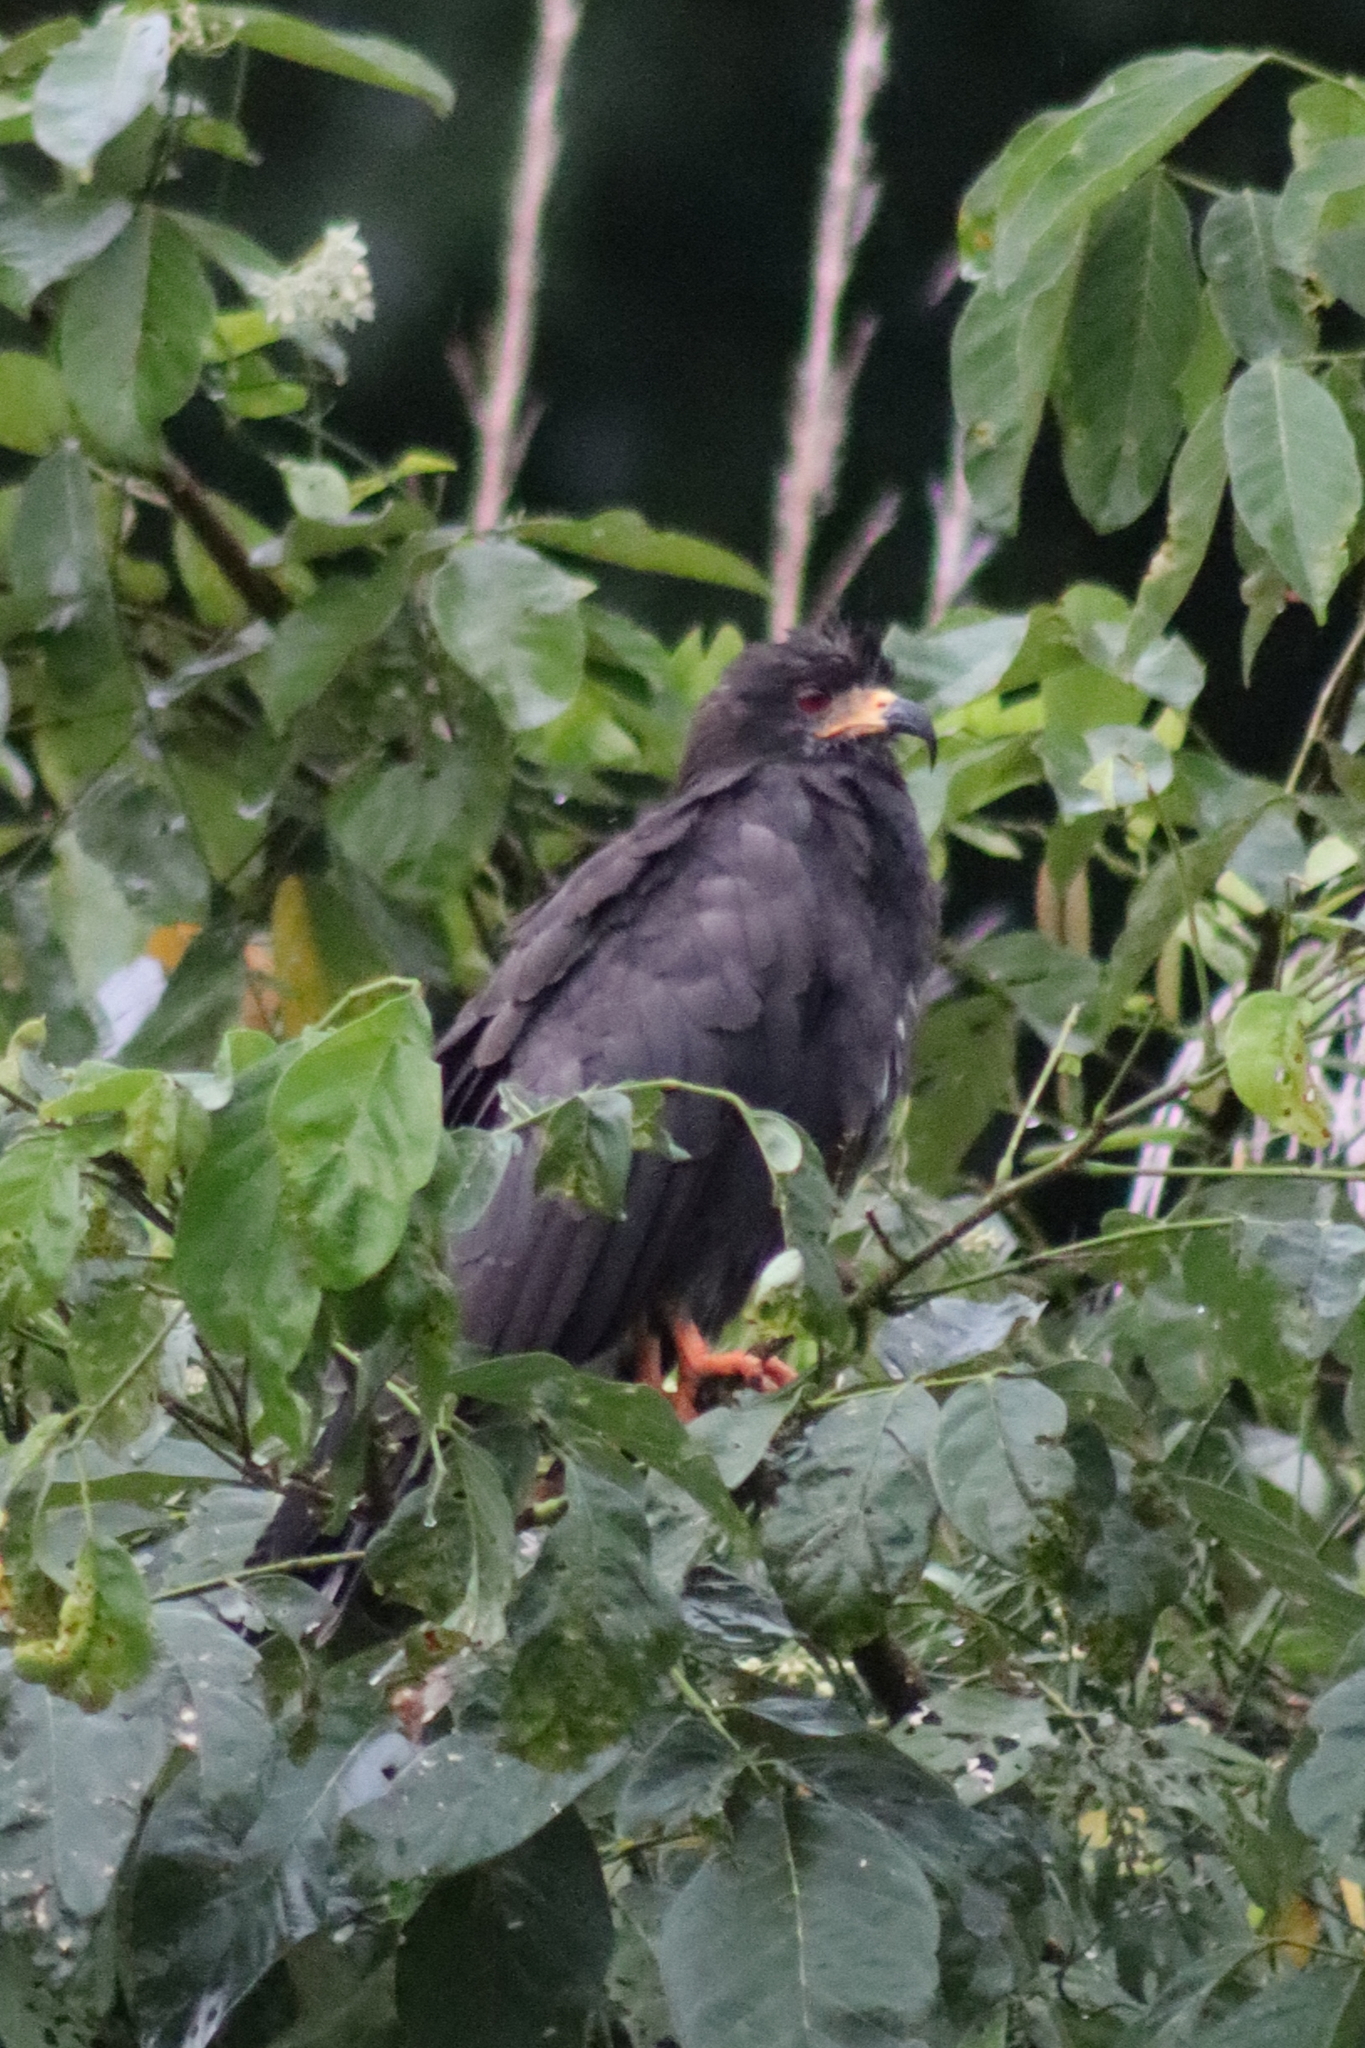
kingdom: Animalia
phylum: Chordata
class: Aves
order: Accipitriformes
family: Accipitridae
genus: Rostrhamus
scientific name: Rostrhamus sociabilis
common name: Snail kite
